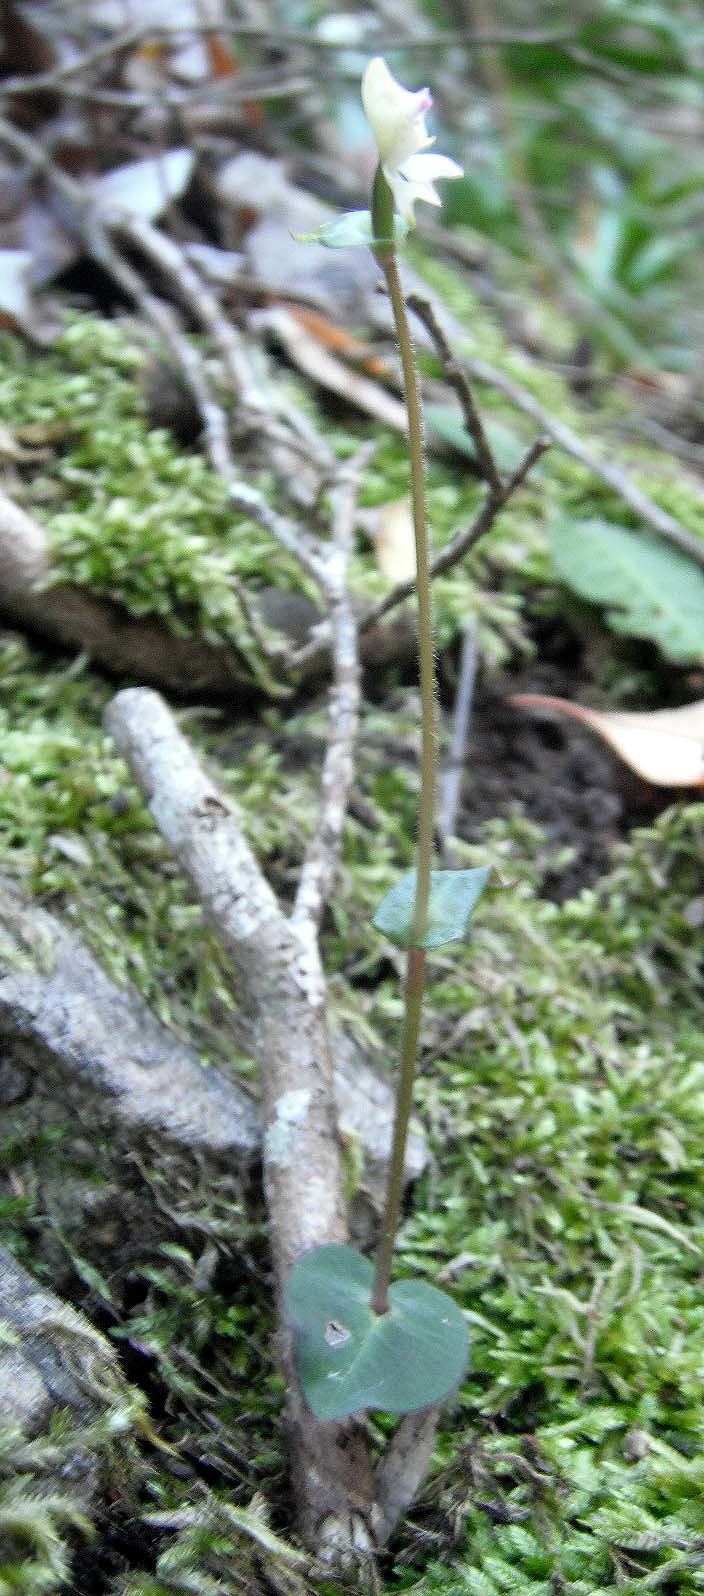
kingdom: Plantae
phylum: Tracheophyta
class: Liliopsida
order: Asparagales
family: Orchidaceae
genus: Disperis
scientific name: Disperis macowanii
